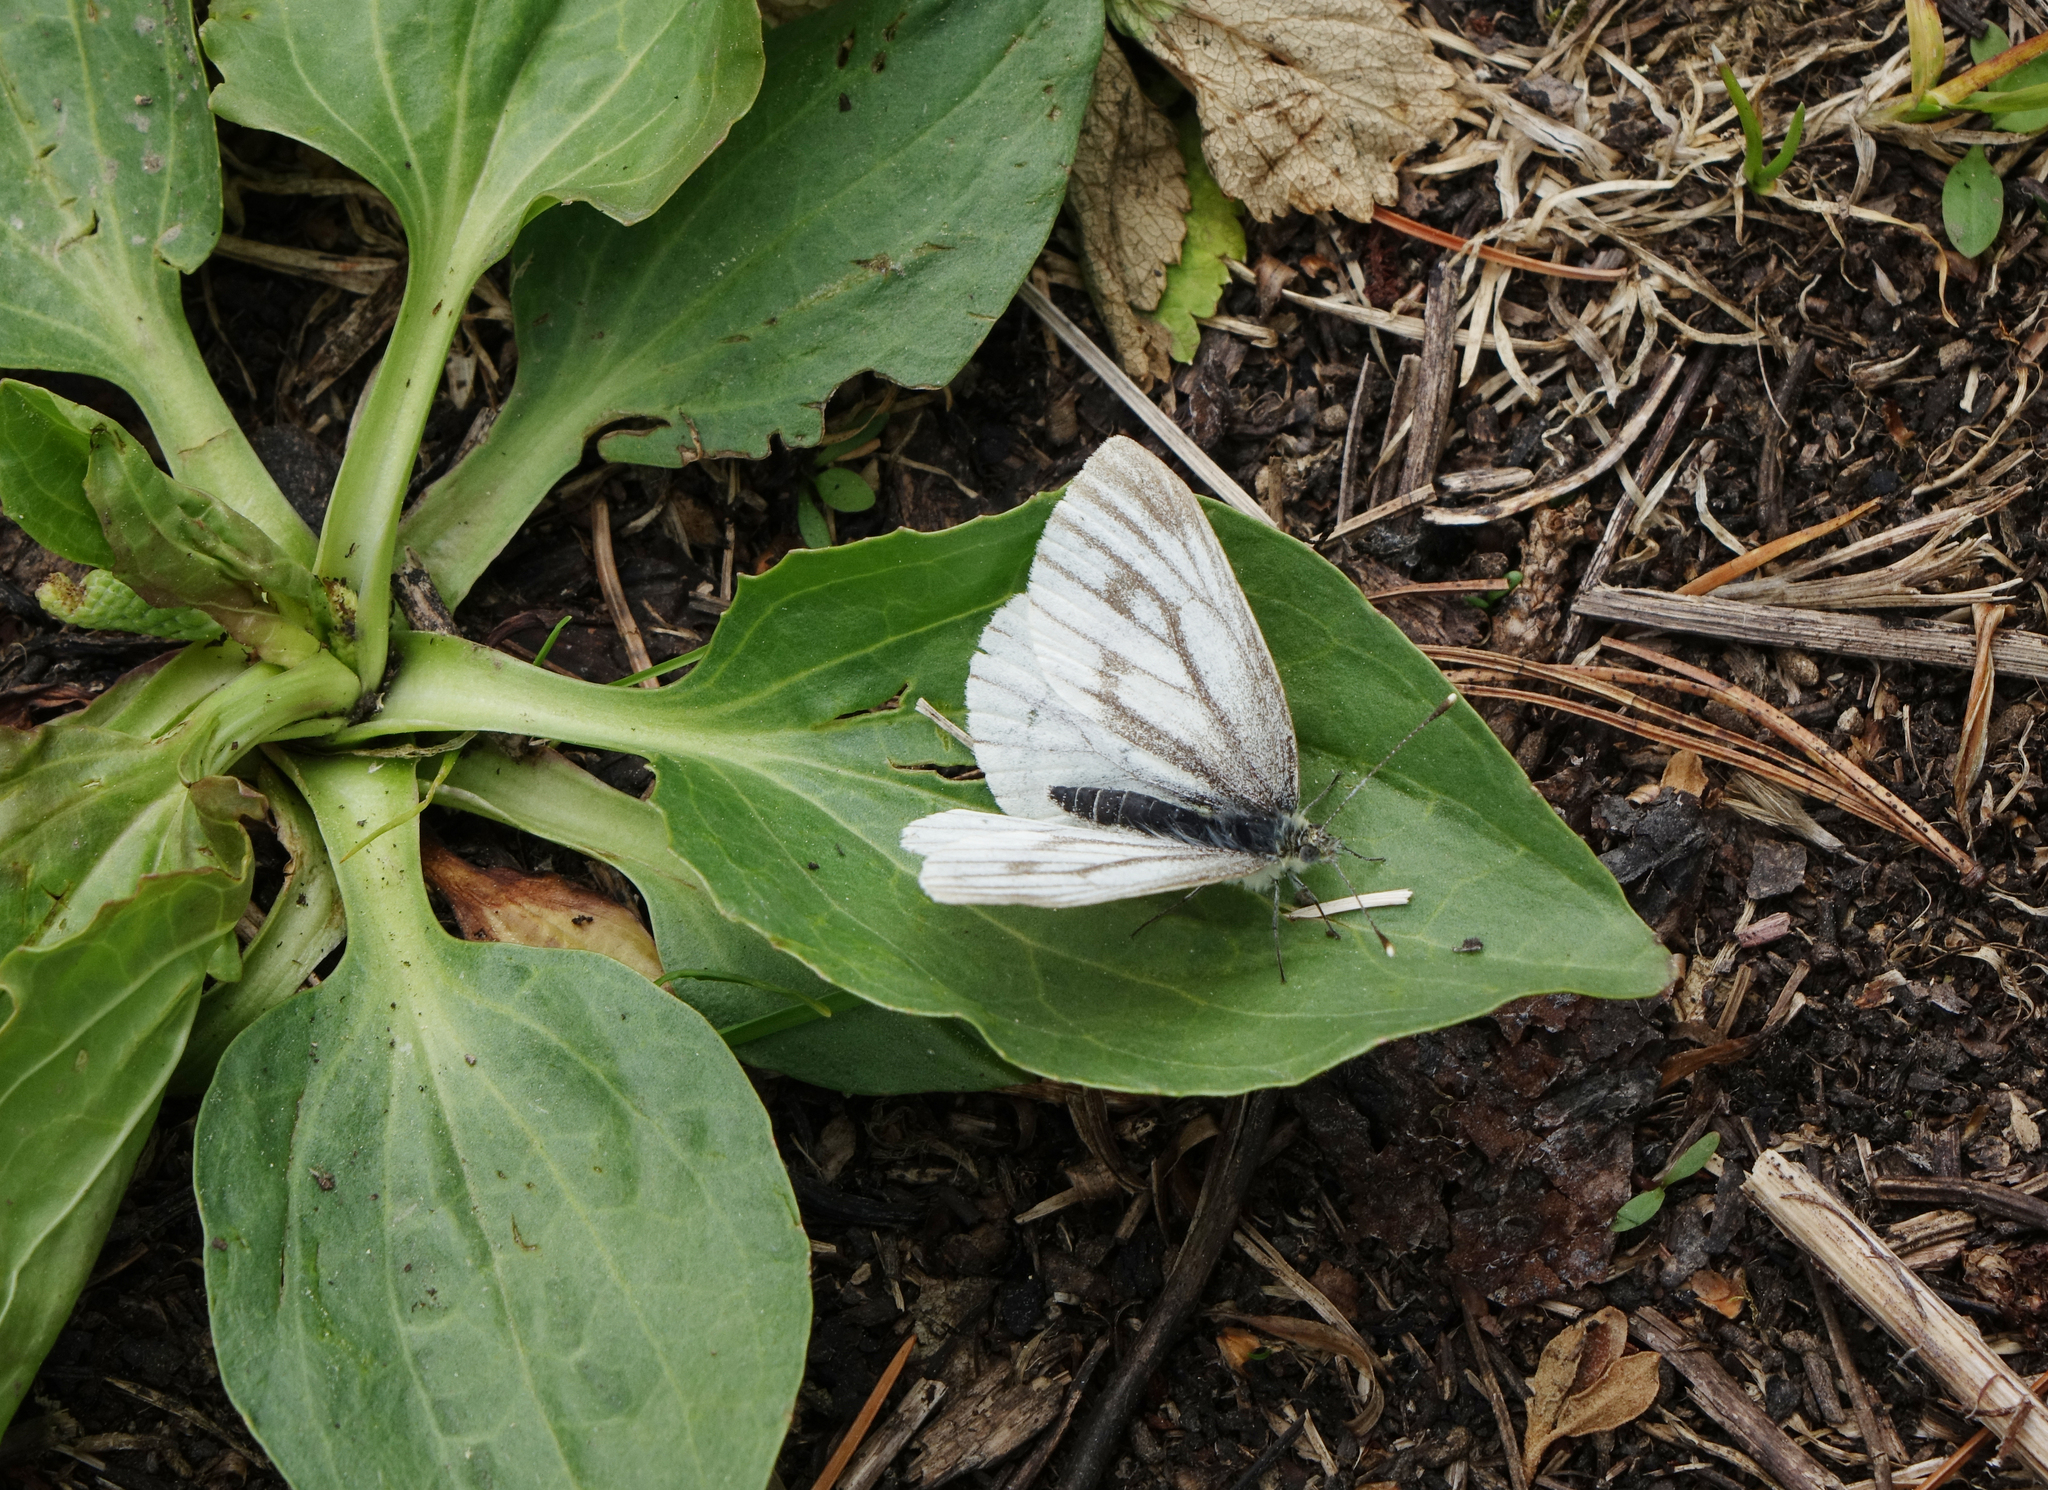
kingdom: Animalia
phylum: Arthropoda
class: Insecta
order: Lepidoptera
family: Pieridae
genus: Pieris
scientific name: Pieris napi
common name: Green-veined white
